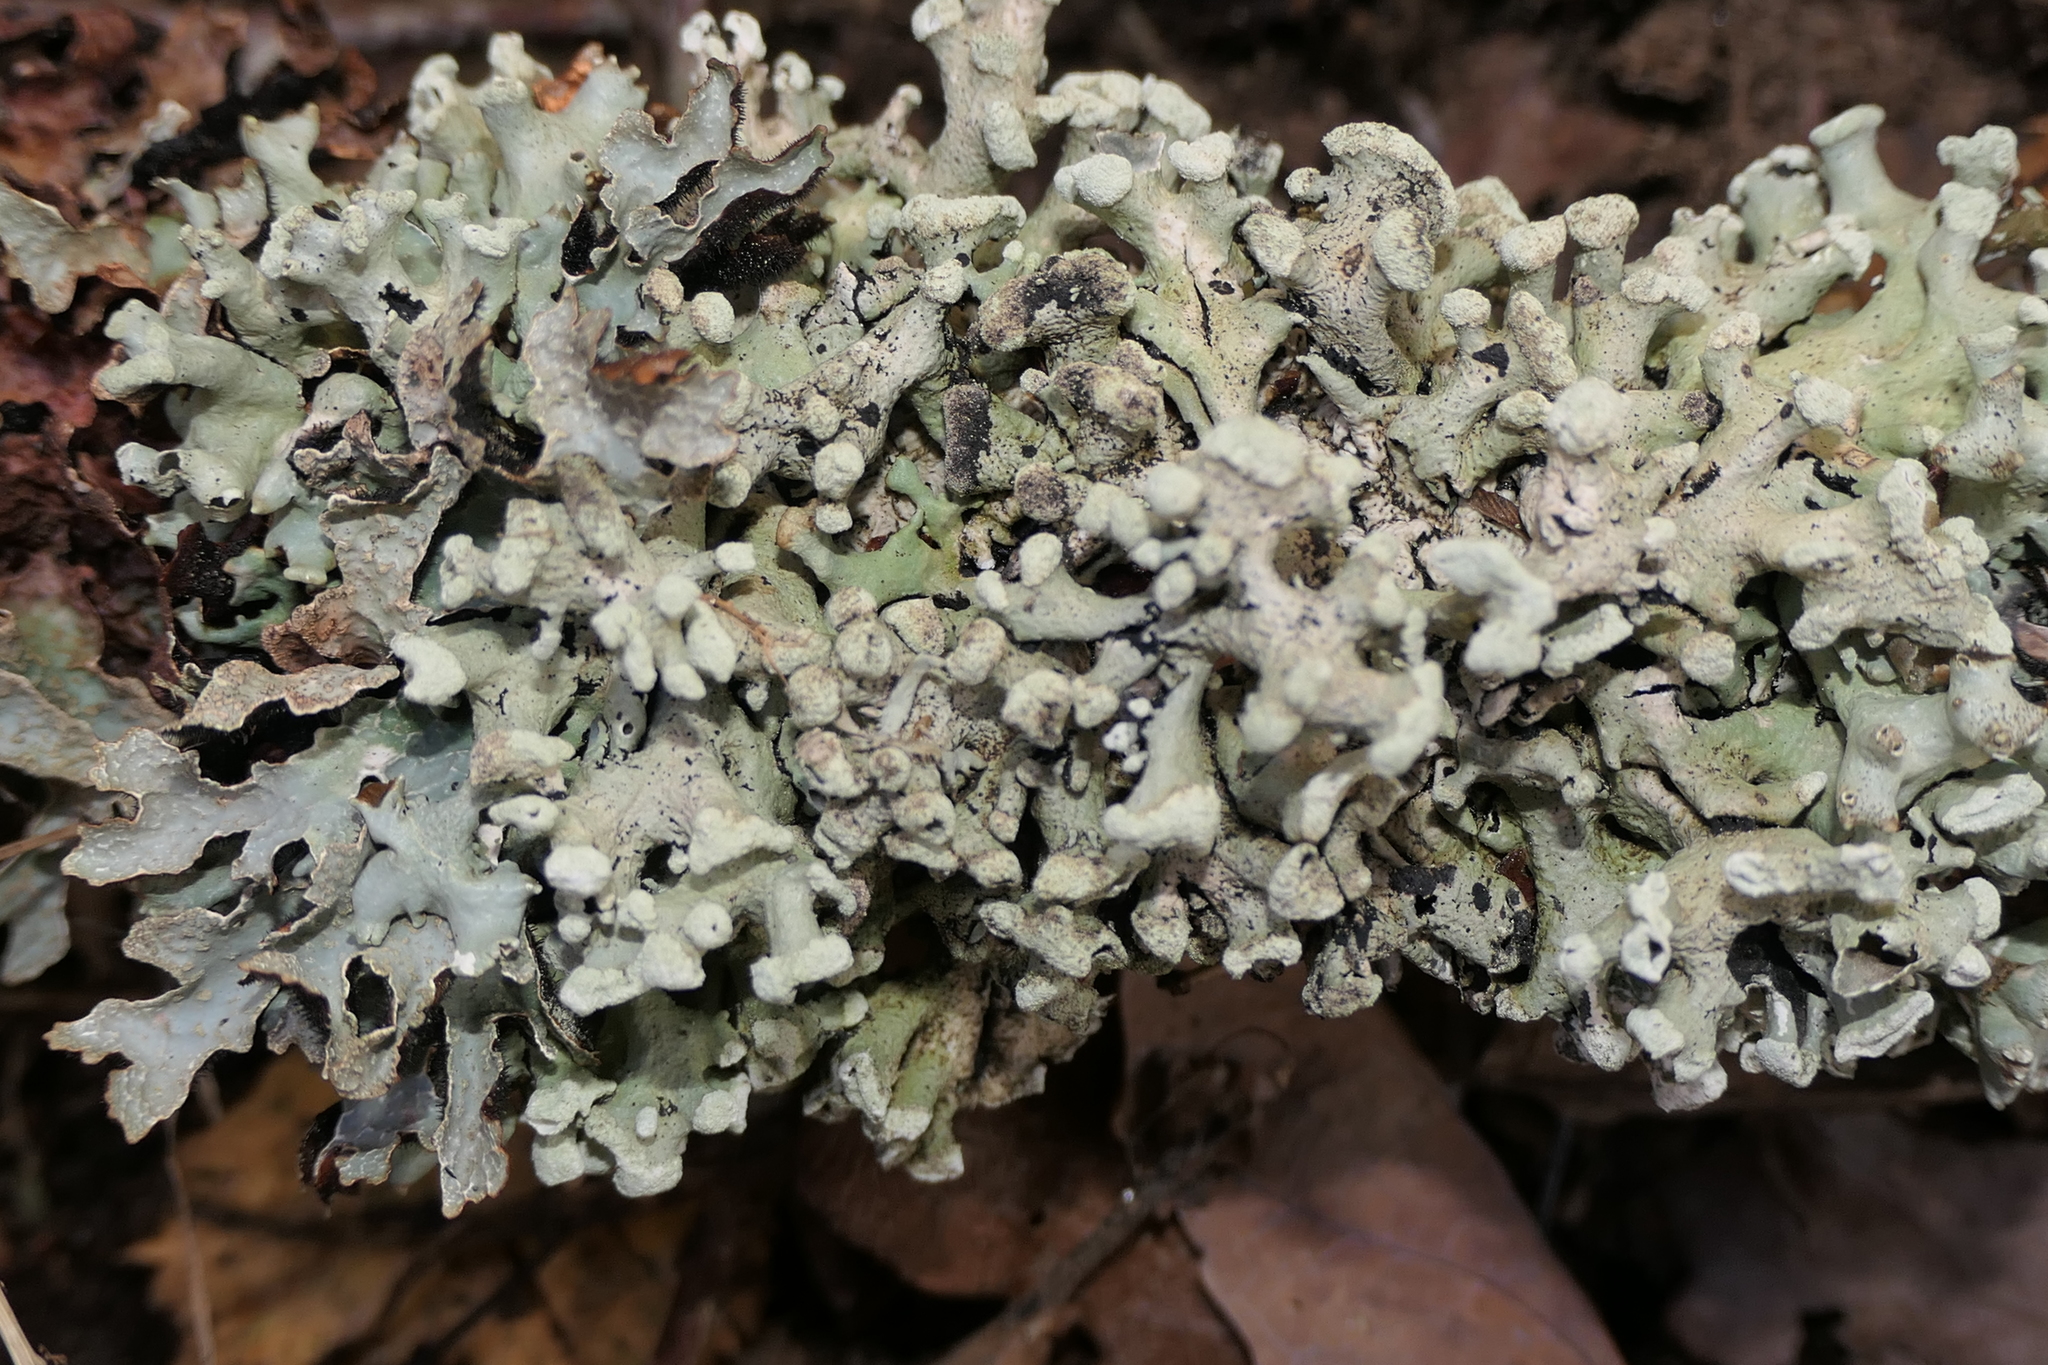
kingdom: Fungi
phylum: Ascomycota
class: Lecanoromycetes
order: Lecanorales
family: Parmeliaceae
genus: Hypogymnia
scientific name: Hypogymnia tubulosa
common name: Powder-headed tube lichen
